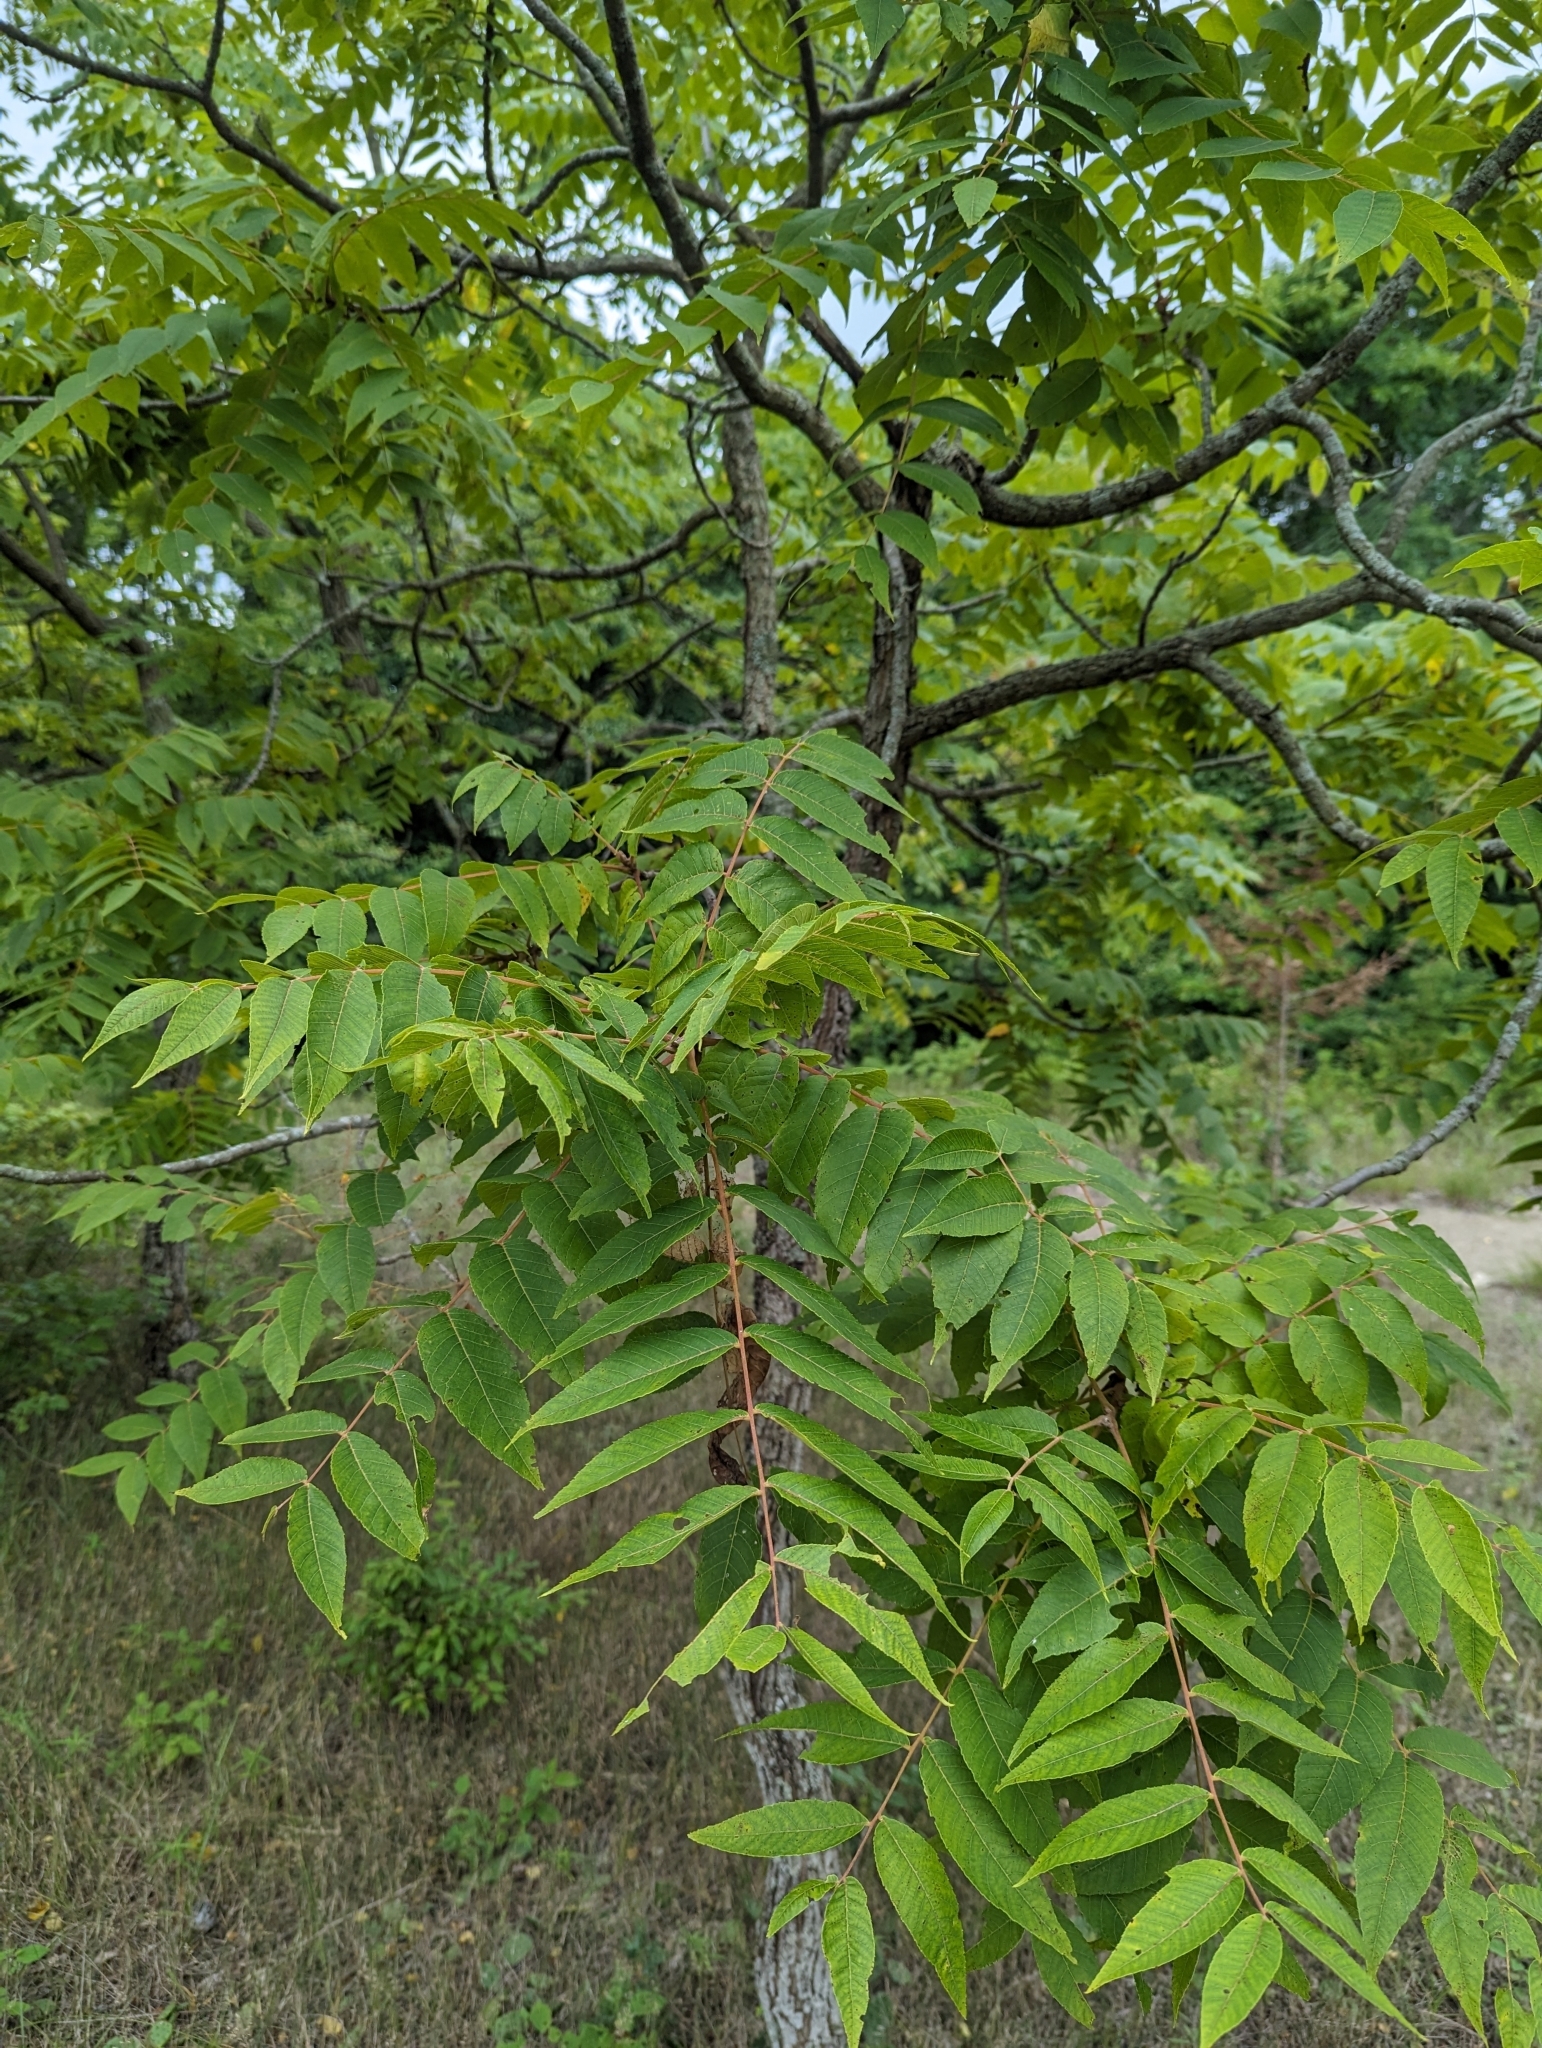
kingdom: Plantae
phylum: Tracheophyta
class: Magnoliopsida
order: Fagales
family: Juglandaceae
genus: Juglans
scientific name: Juglans nigra
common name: Black walnut
